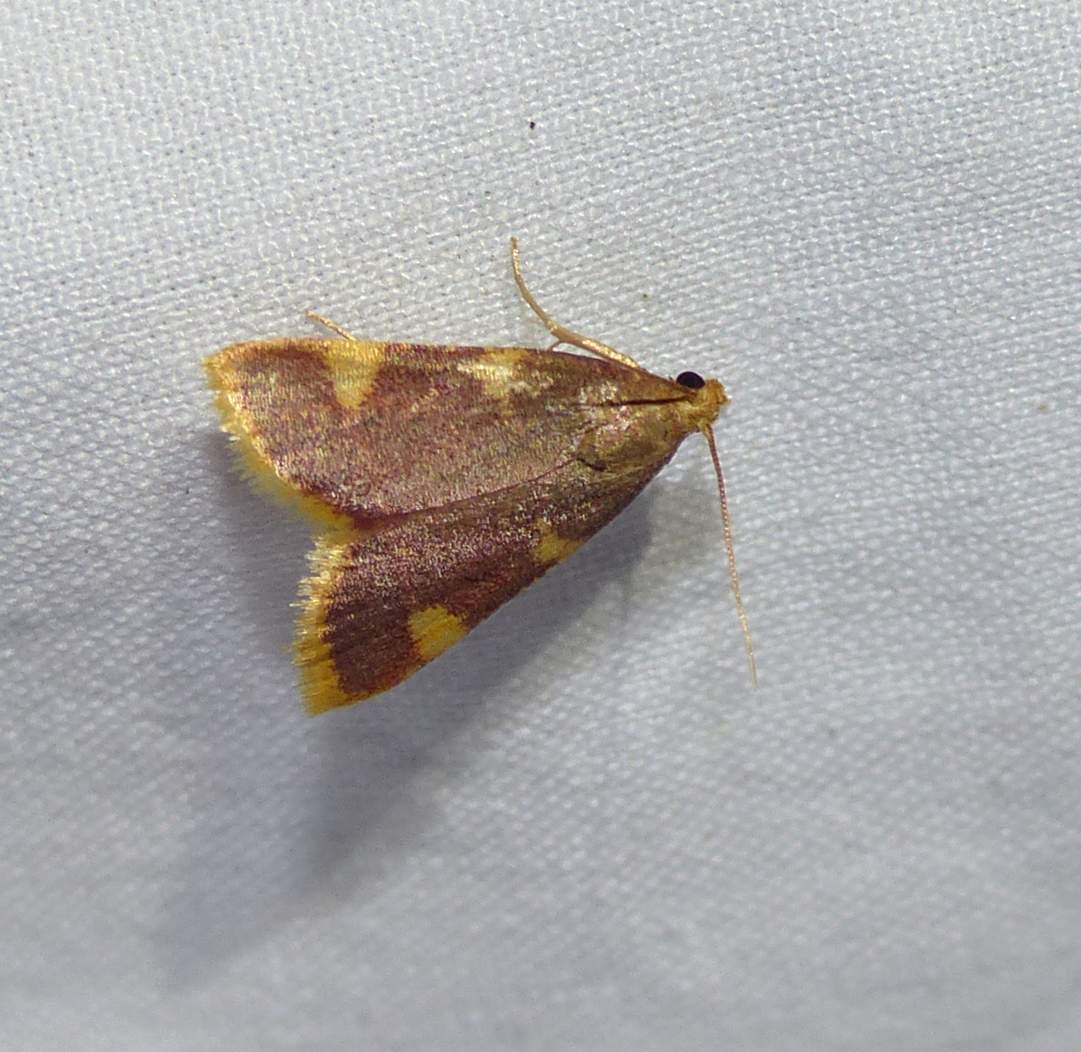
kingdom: Animalia
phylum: Arthropoda
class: Insecta
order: Lepidoptera
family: Pyralidae
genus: Hypsopygia
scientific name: Hypsopygia costalis
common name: Gold triangle
